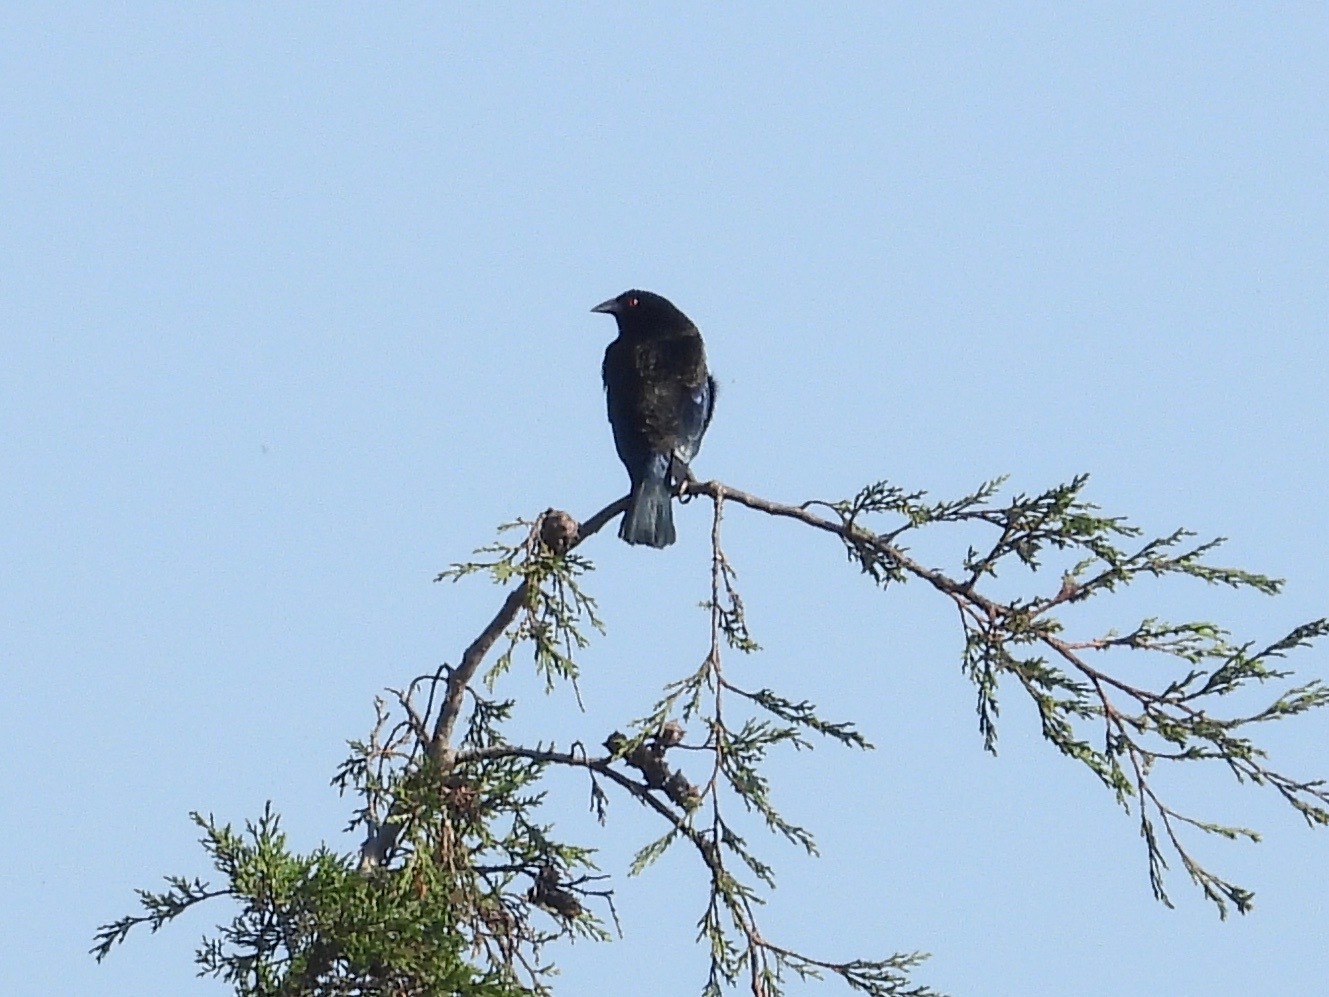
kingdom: Animalia
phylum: Chordata
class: Aves
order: Passeriformes
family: Icteridae
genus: Molothrus
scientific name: Molothrus aeneus
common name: Bronzed cowbird
